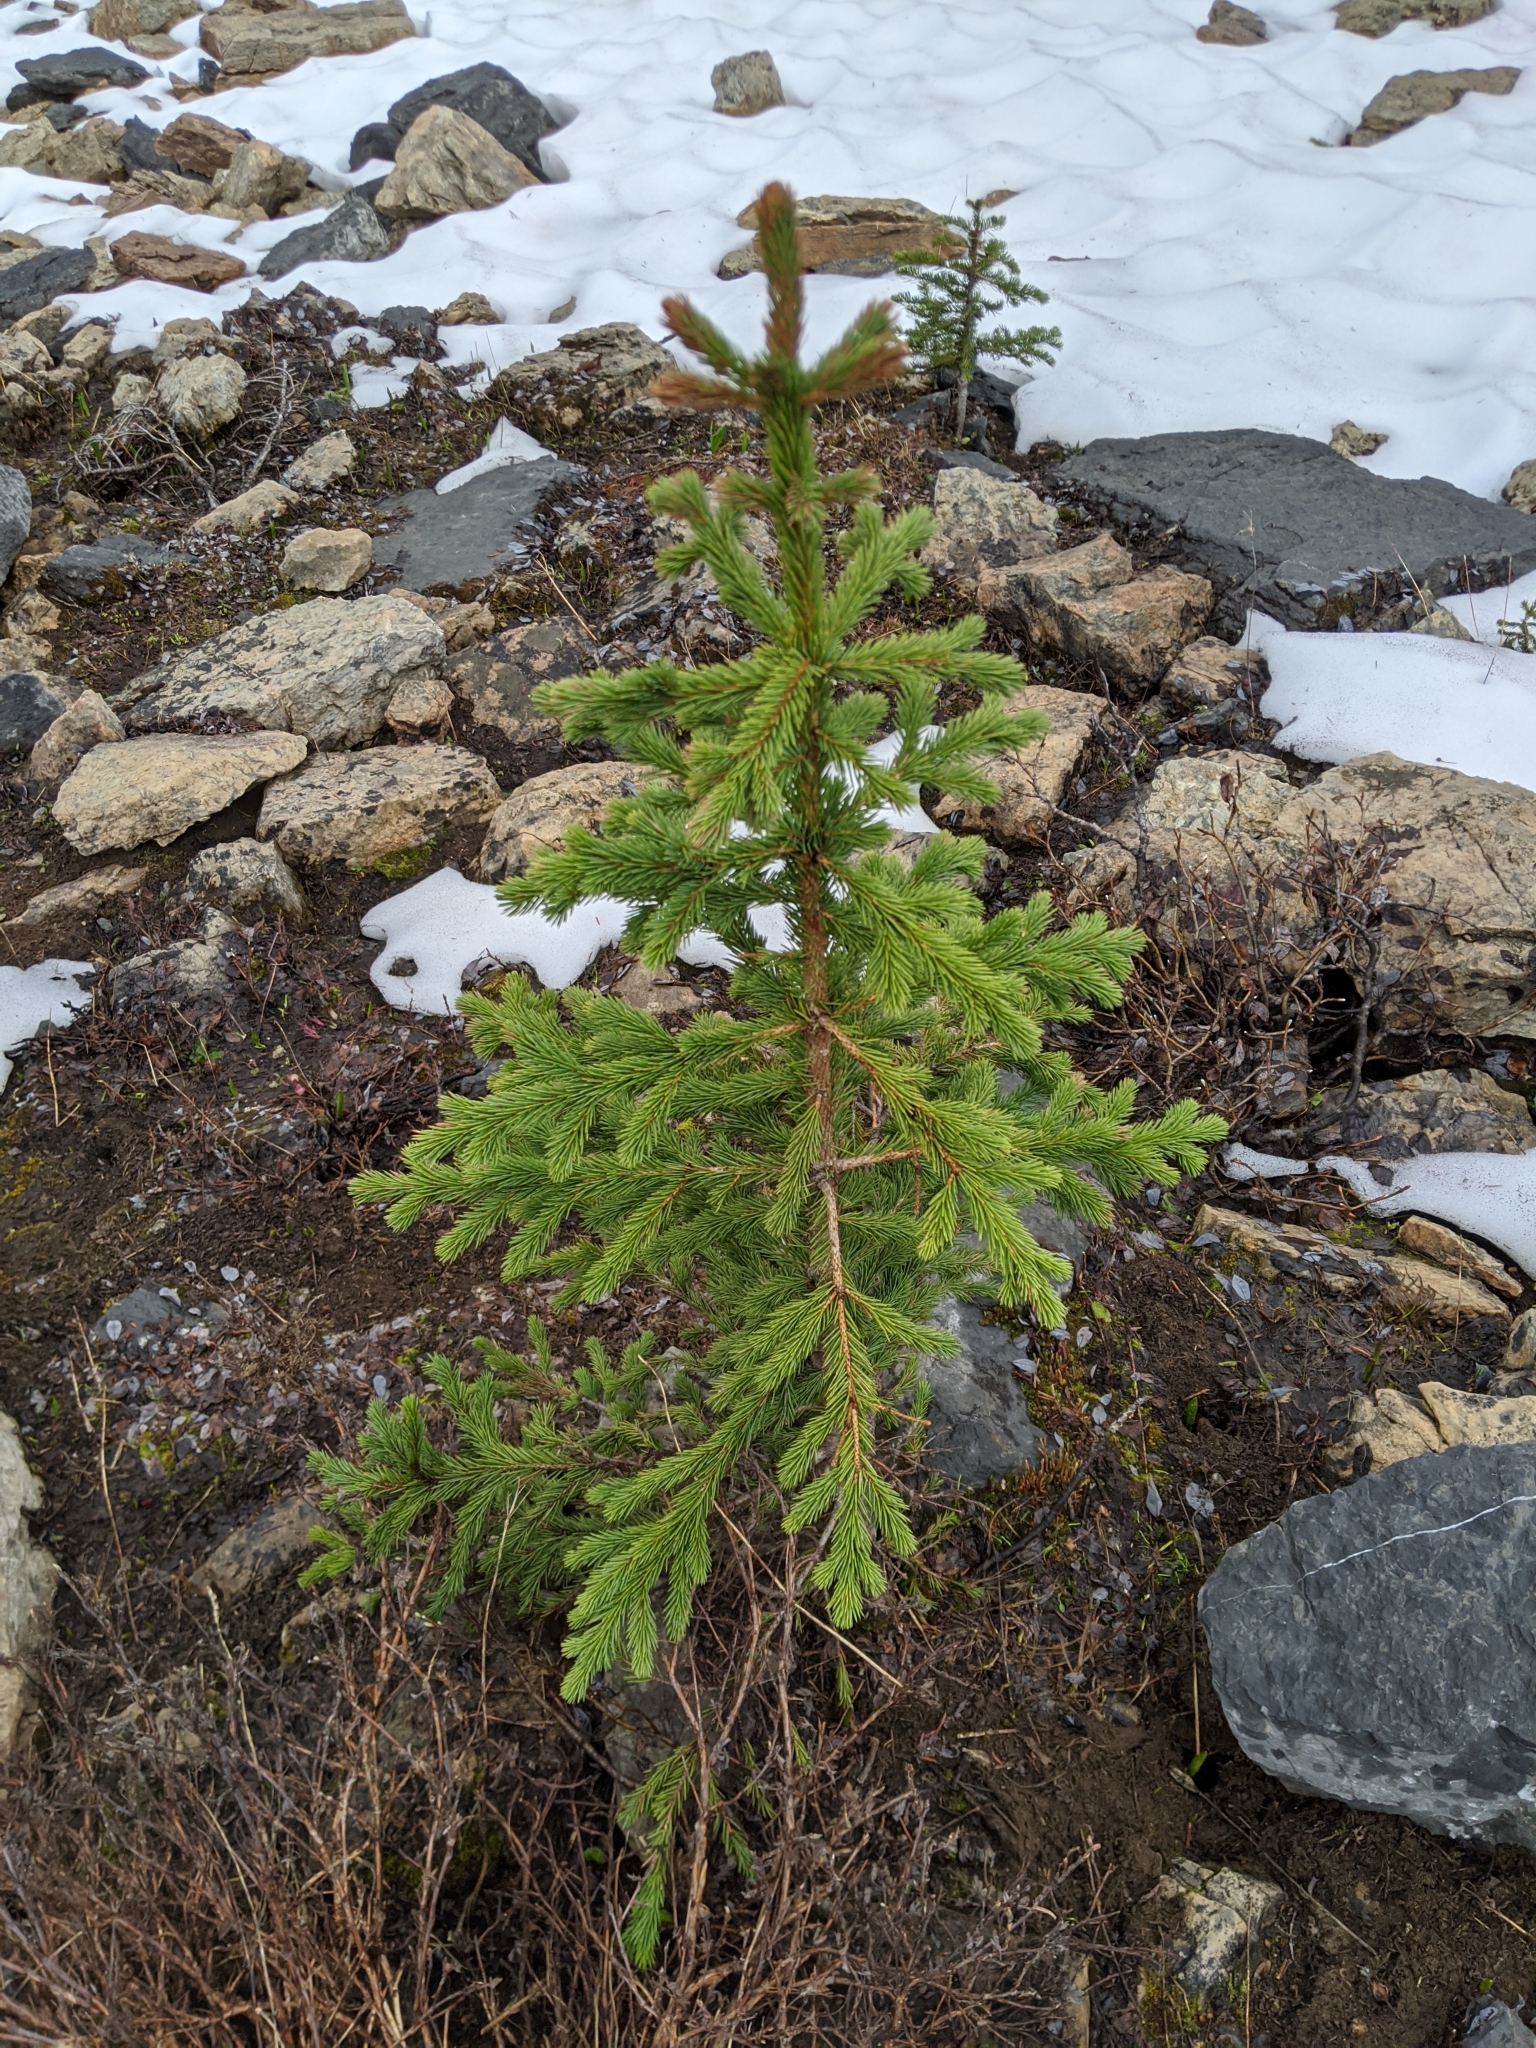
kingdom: Plantae
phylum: Tracheophyta
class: Pinopsida
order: Pinales
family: Pinaceae
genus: Picea
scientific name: Picea engelmannii
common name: Engelmann spruce
